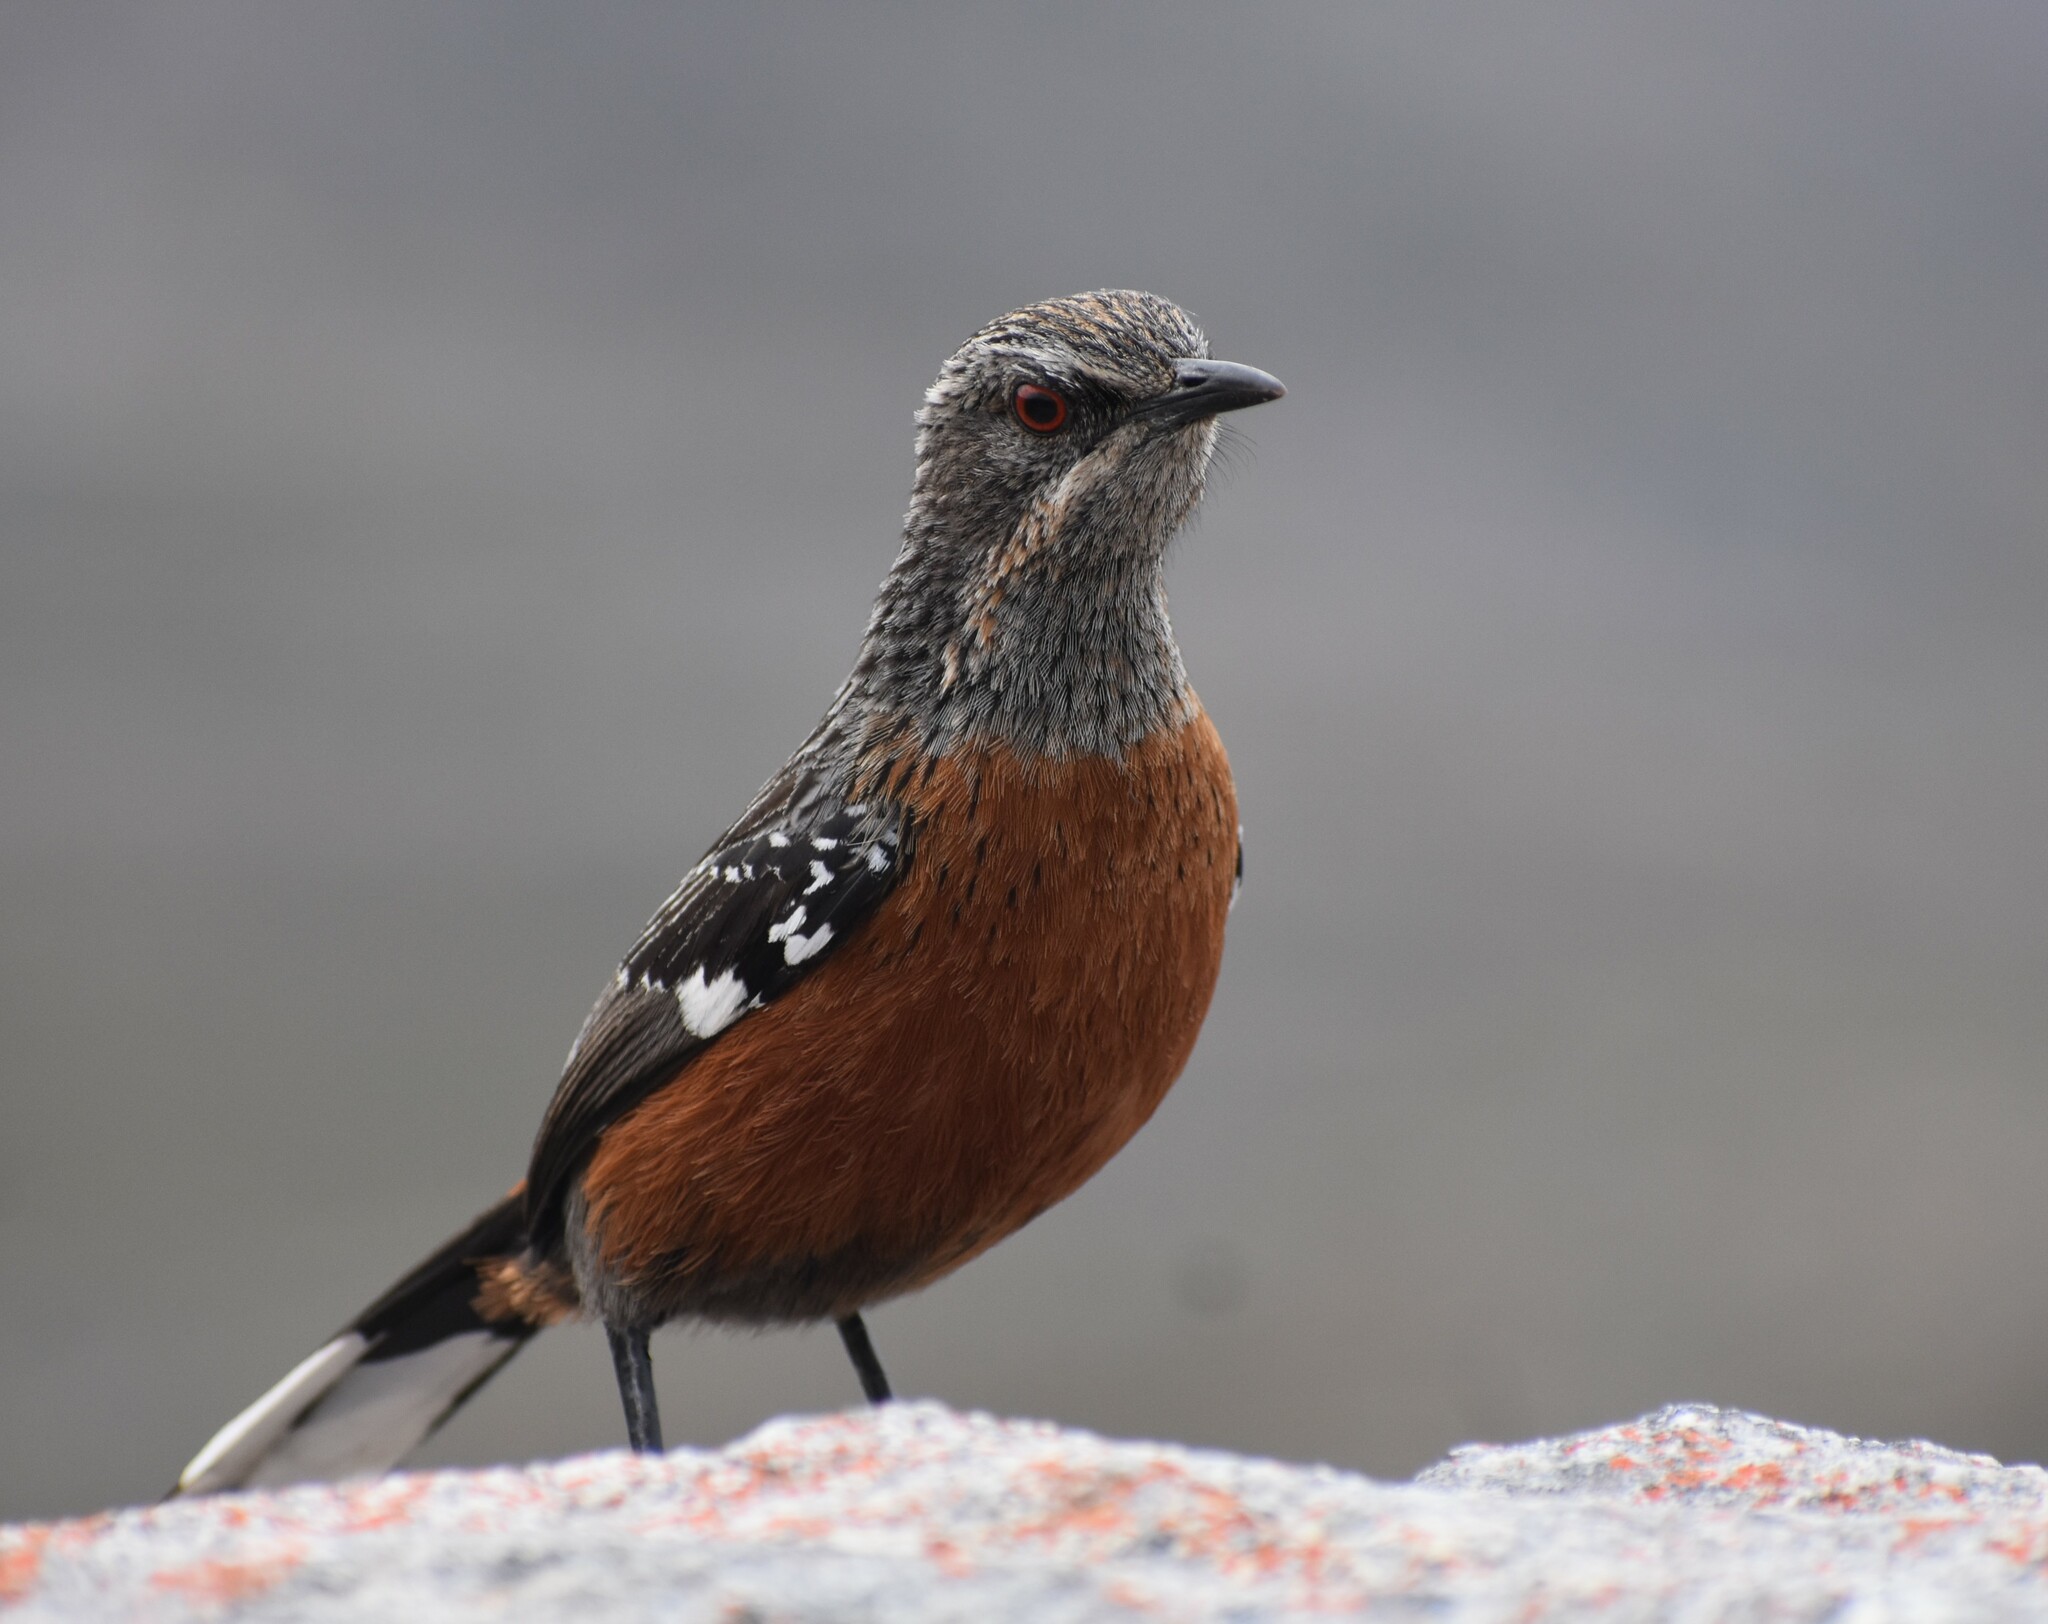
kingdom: Animalia
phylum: Chordata
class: Aves
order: Passeriformes
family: Chaetopidae
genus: Chaetops
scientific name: Chaetops frenatus
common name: Cape rockjumper
